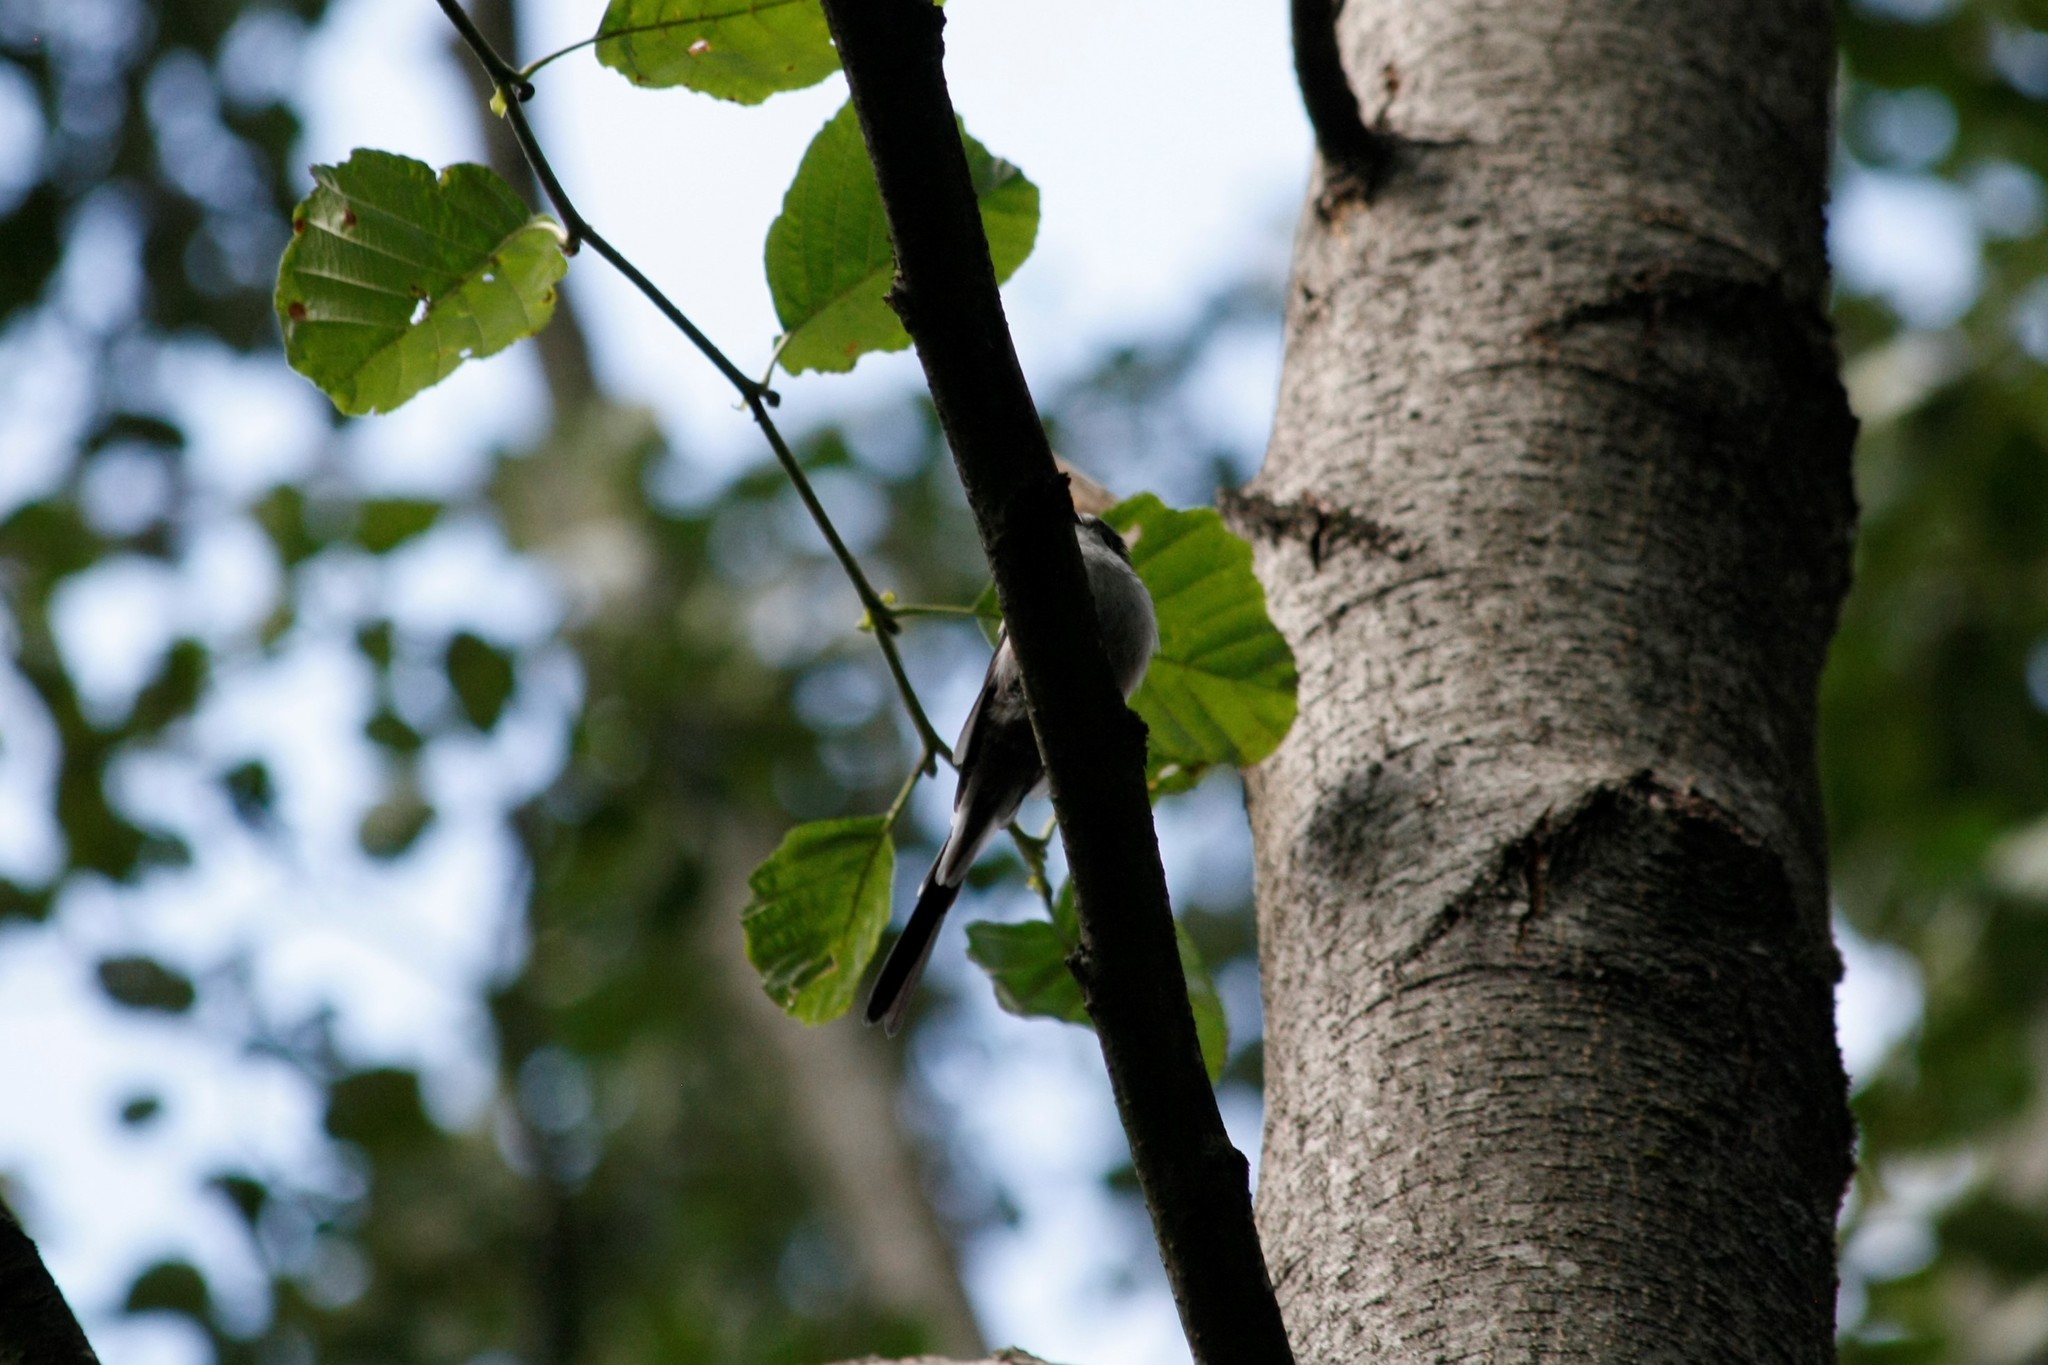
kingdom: Animalia
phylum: Chordata
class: Aves
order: Passeriformes
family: Aegithalidae
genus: Aegithalos
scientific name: Aegithalos caudatus
